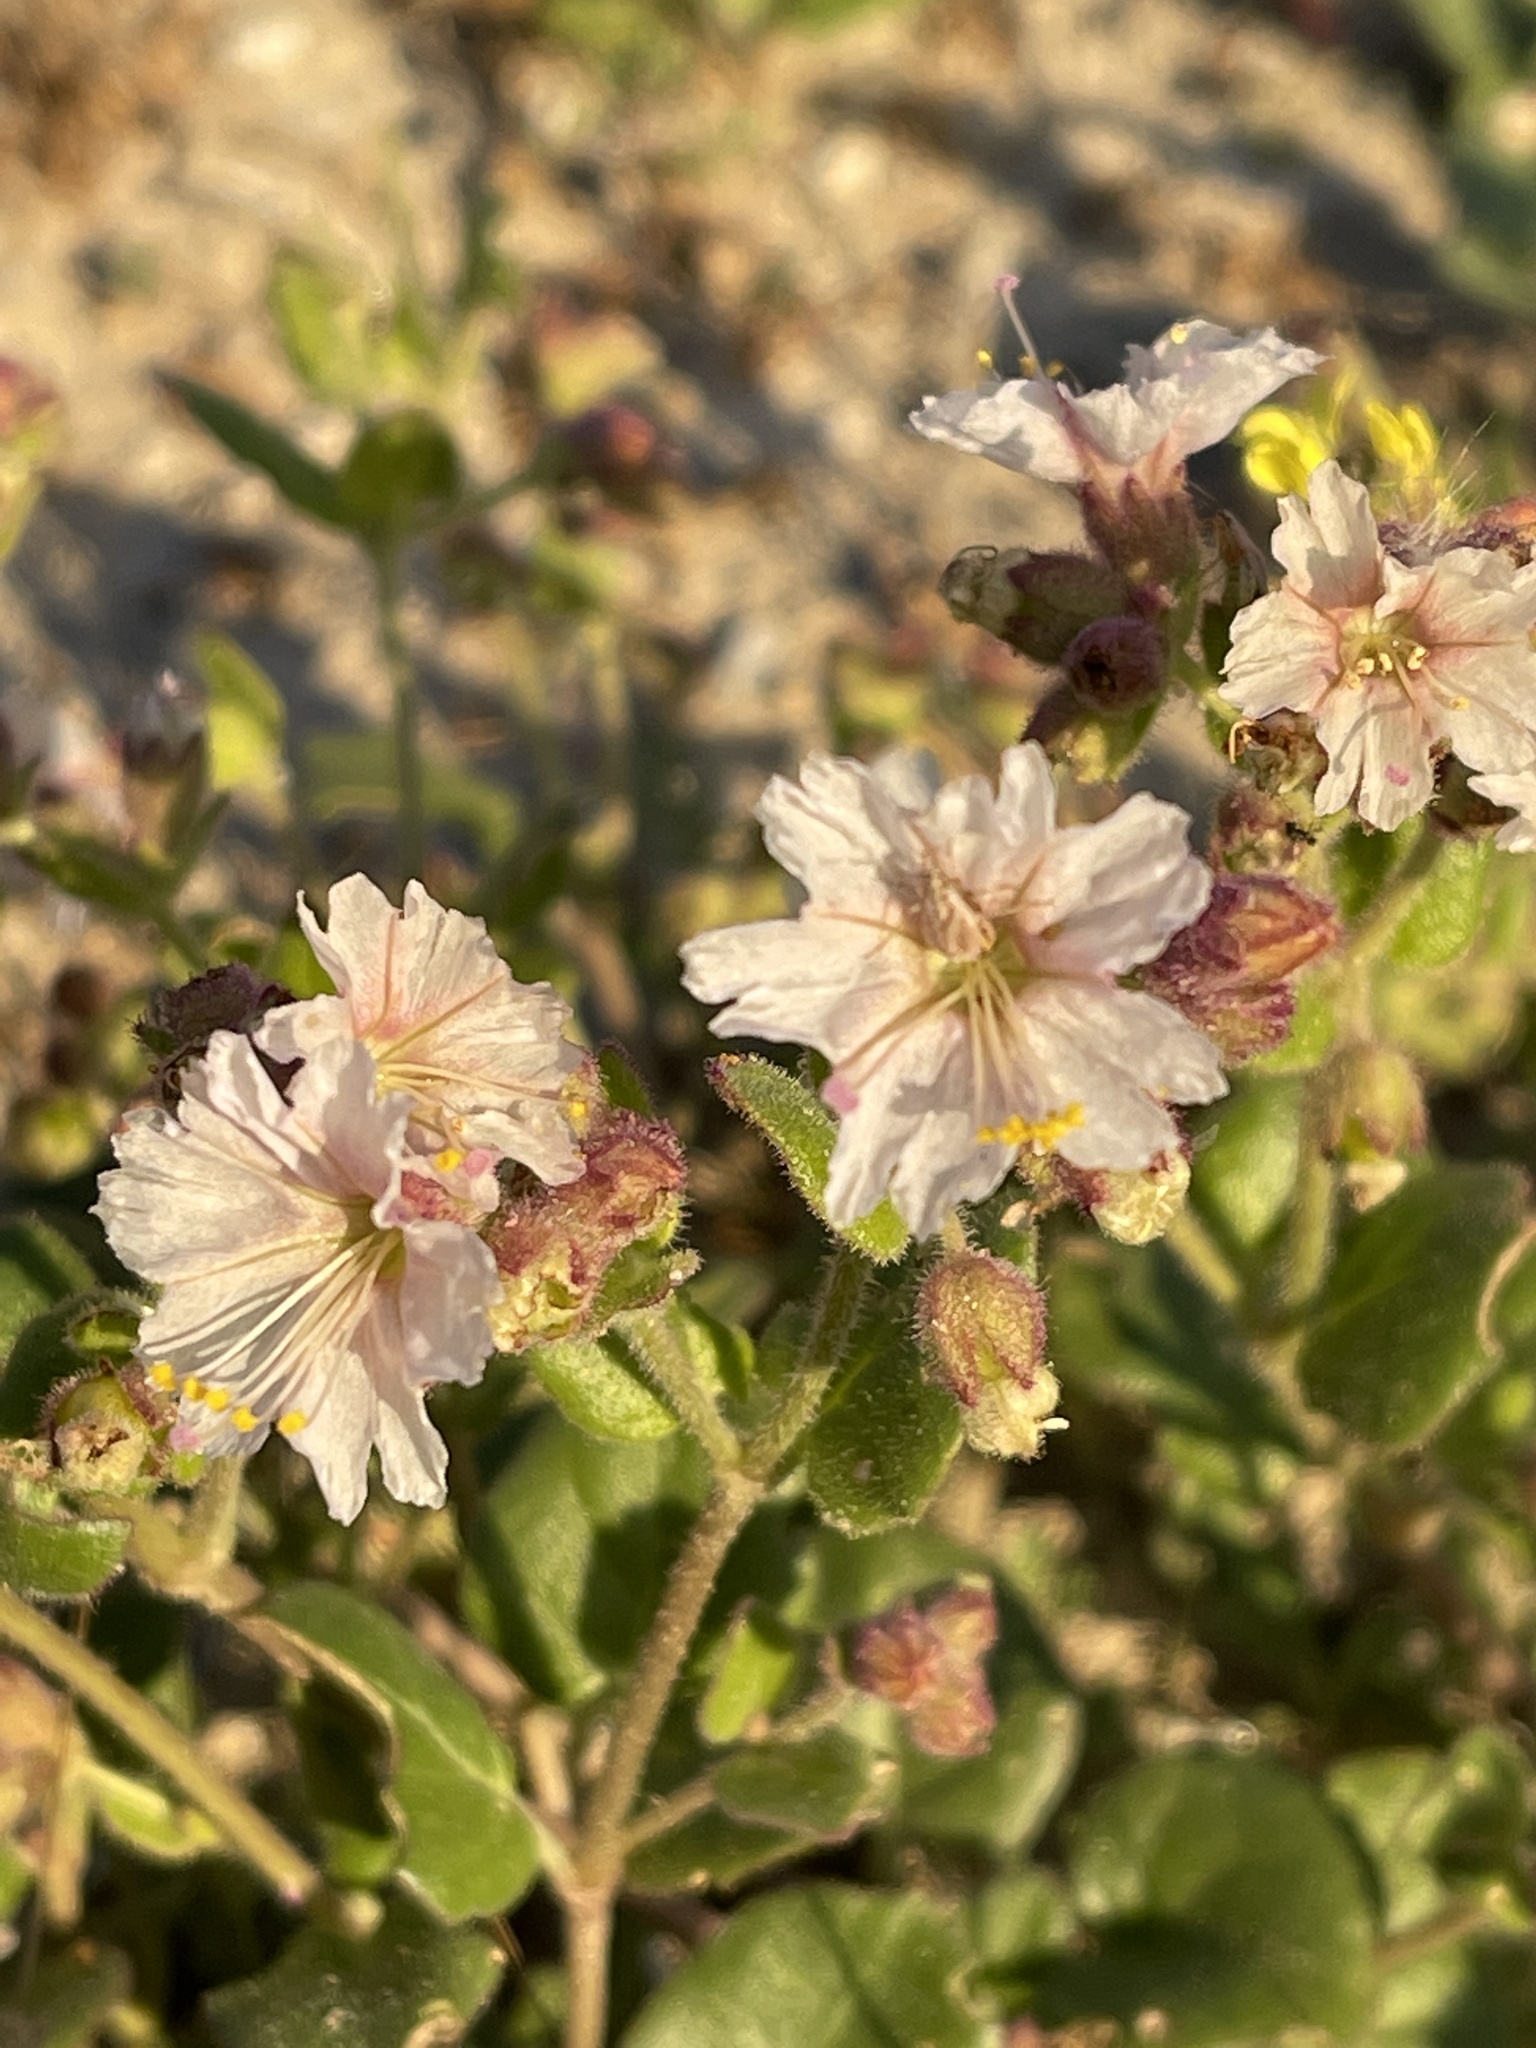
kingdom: Plantae
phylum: Tracheophyta
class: Magnoliopsida
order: Caryophyllales
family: Nyctaginaceae
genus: Mirabilis
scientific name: Mirabilis laevis
